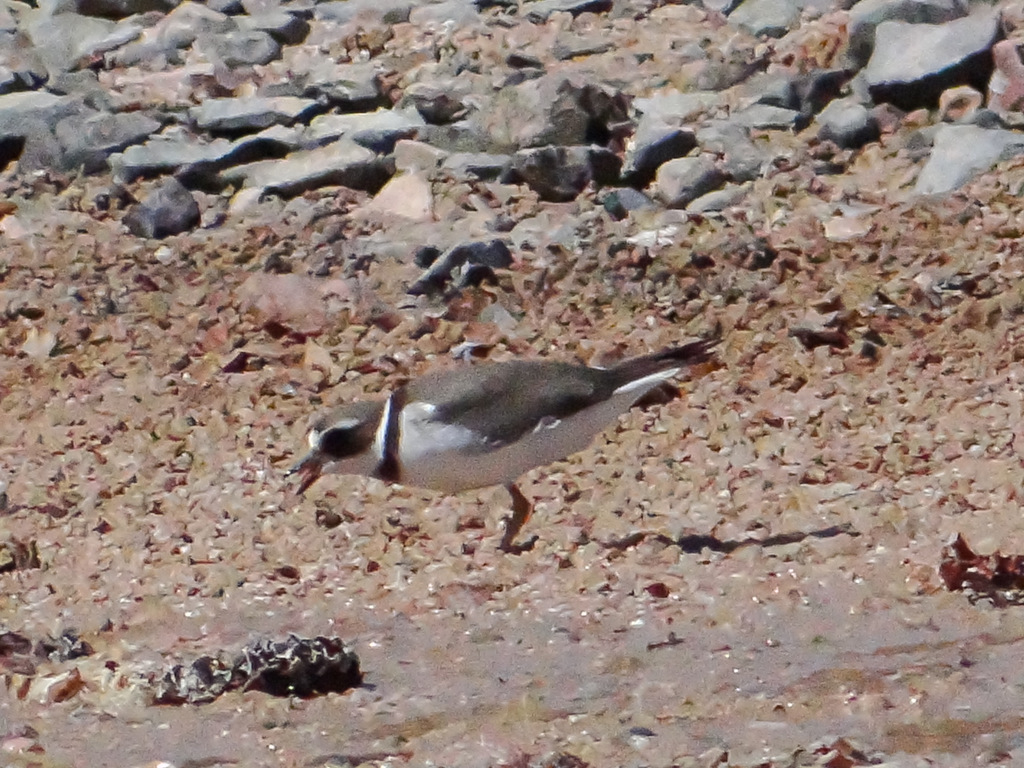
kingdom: Animalia
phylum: Chordata
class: Aves
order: Charadriiformes
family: Charadriidae
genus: Charadrius
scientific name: Charadrius hiaticula
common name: Common ringed plover
